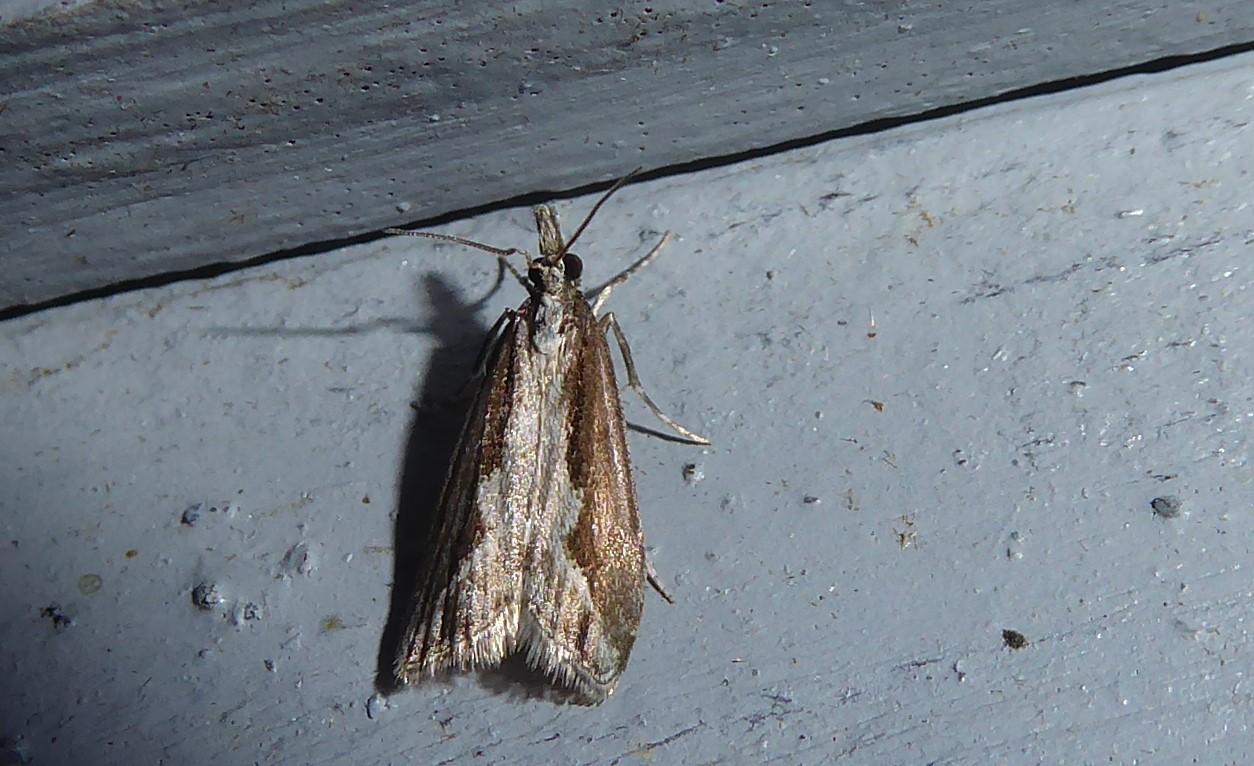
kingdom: Animalia
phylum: Arthropoda
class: Insecta
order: Lepidoptera
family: Crambidae
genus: Eudonia
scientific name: Eudonia steropaea
